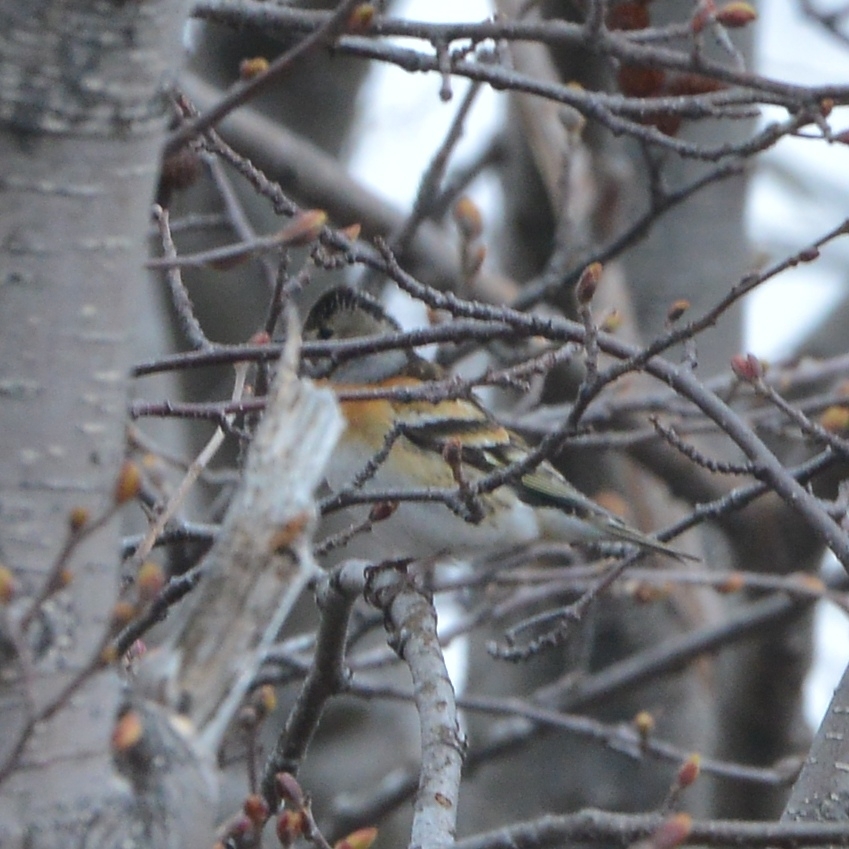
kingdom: Animalia
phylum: Chordata
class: Aves
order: Passeriformes
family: Fringillidae
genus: Fringilla
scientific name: Fringilla montifringilla
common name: Brambling
